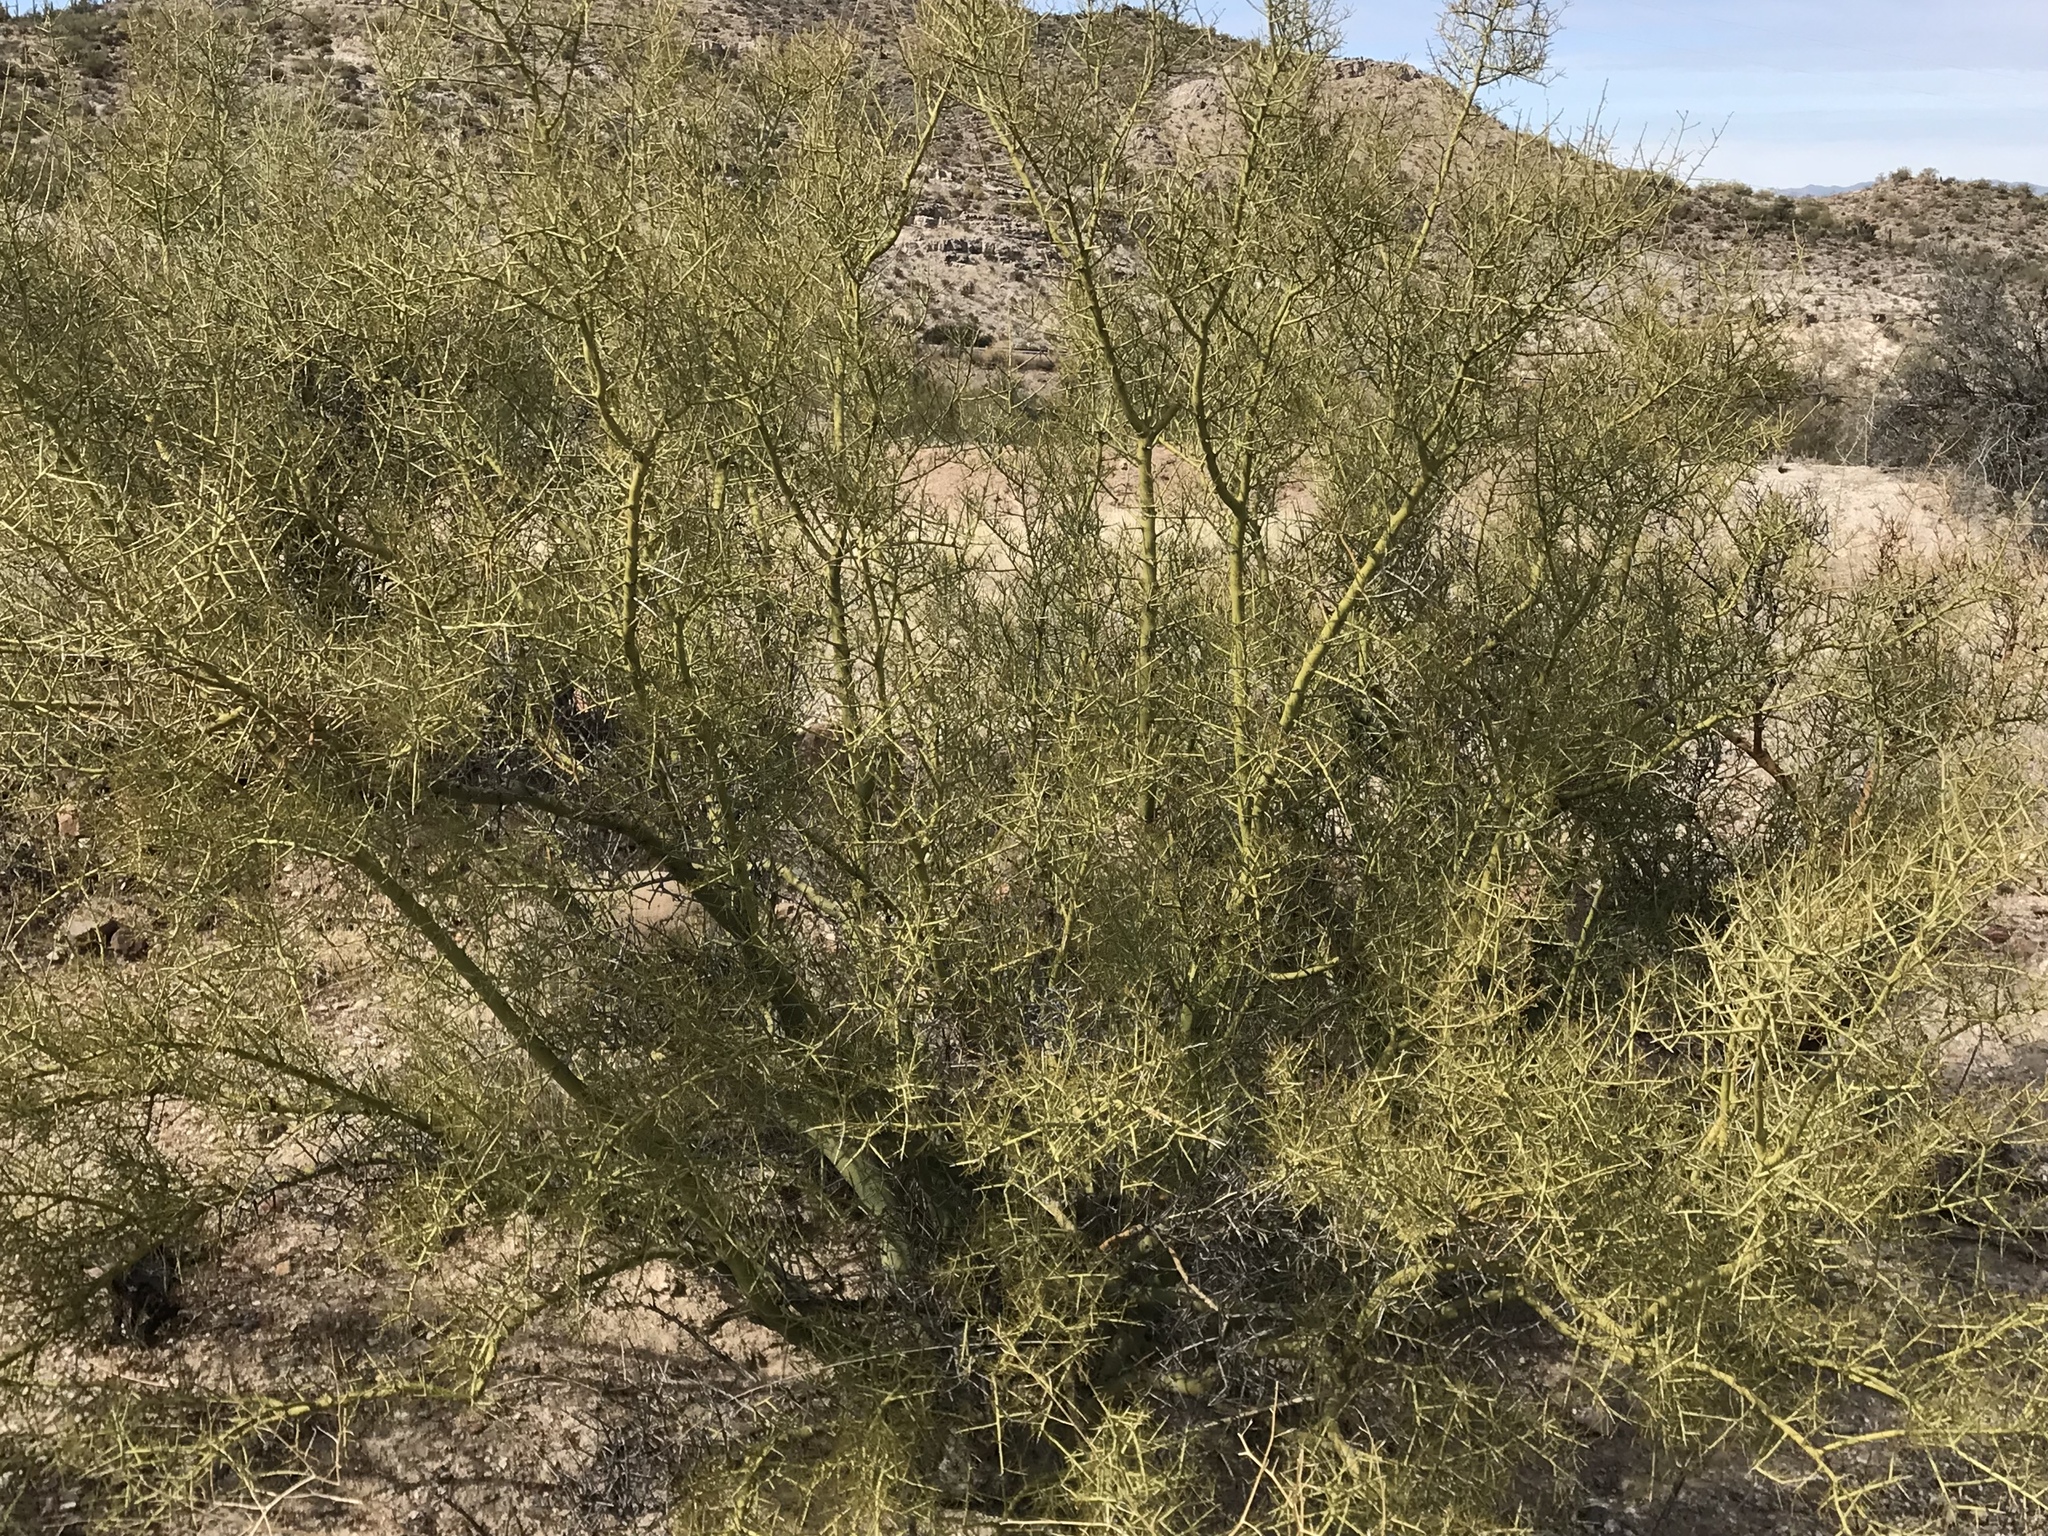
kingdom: Plantae
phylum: Tracheophyta
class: Magnoliopsida
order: Fabales
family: Fabaceae
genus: Parkinsonia
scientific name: Parkinsonia microphylla
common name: Yellow paloverde
